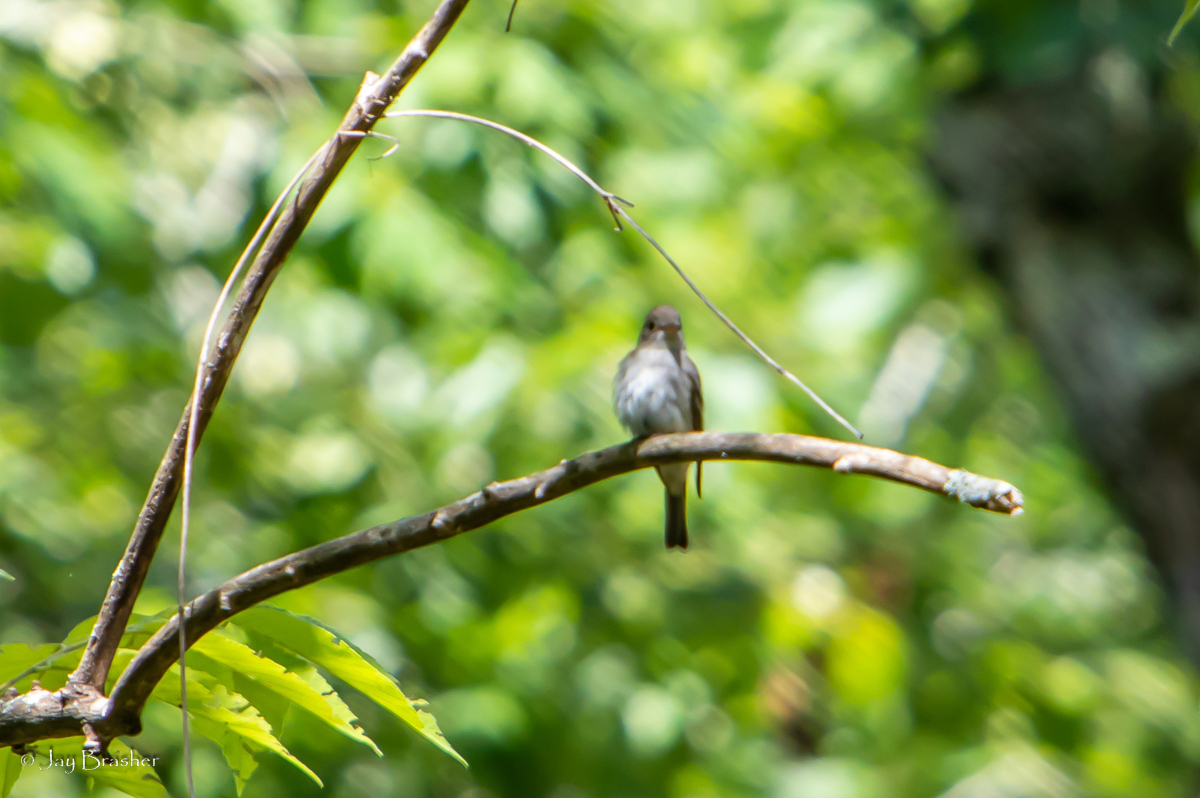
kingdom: Animalia
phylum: Chordata
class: Aves
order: Passeriformes
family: Tyrannidae
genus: Contopus
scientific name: Contopus virens
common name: Eastern wood-pewee
